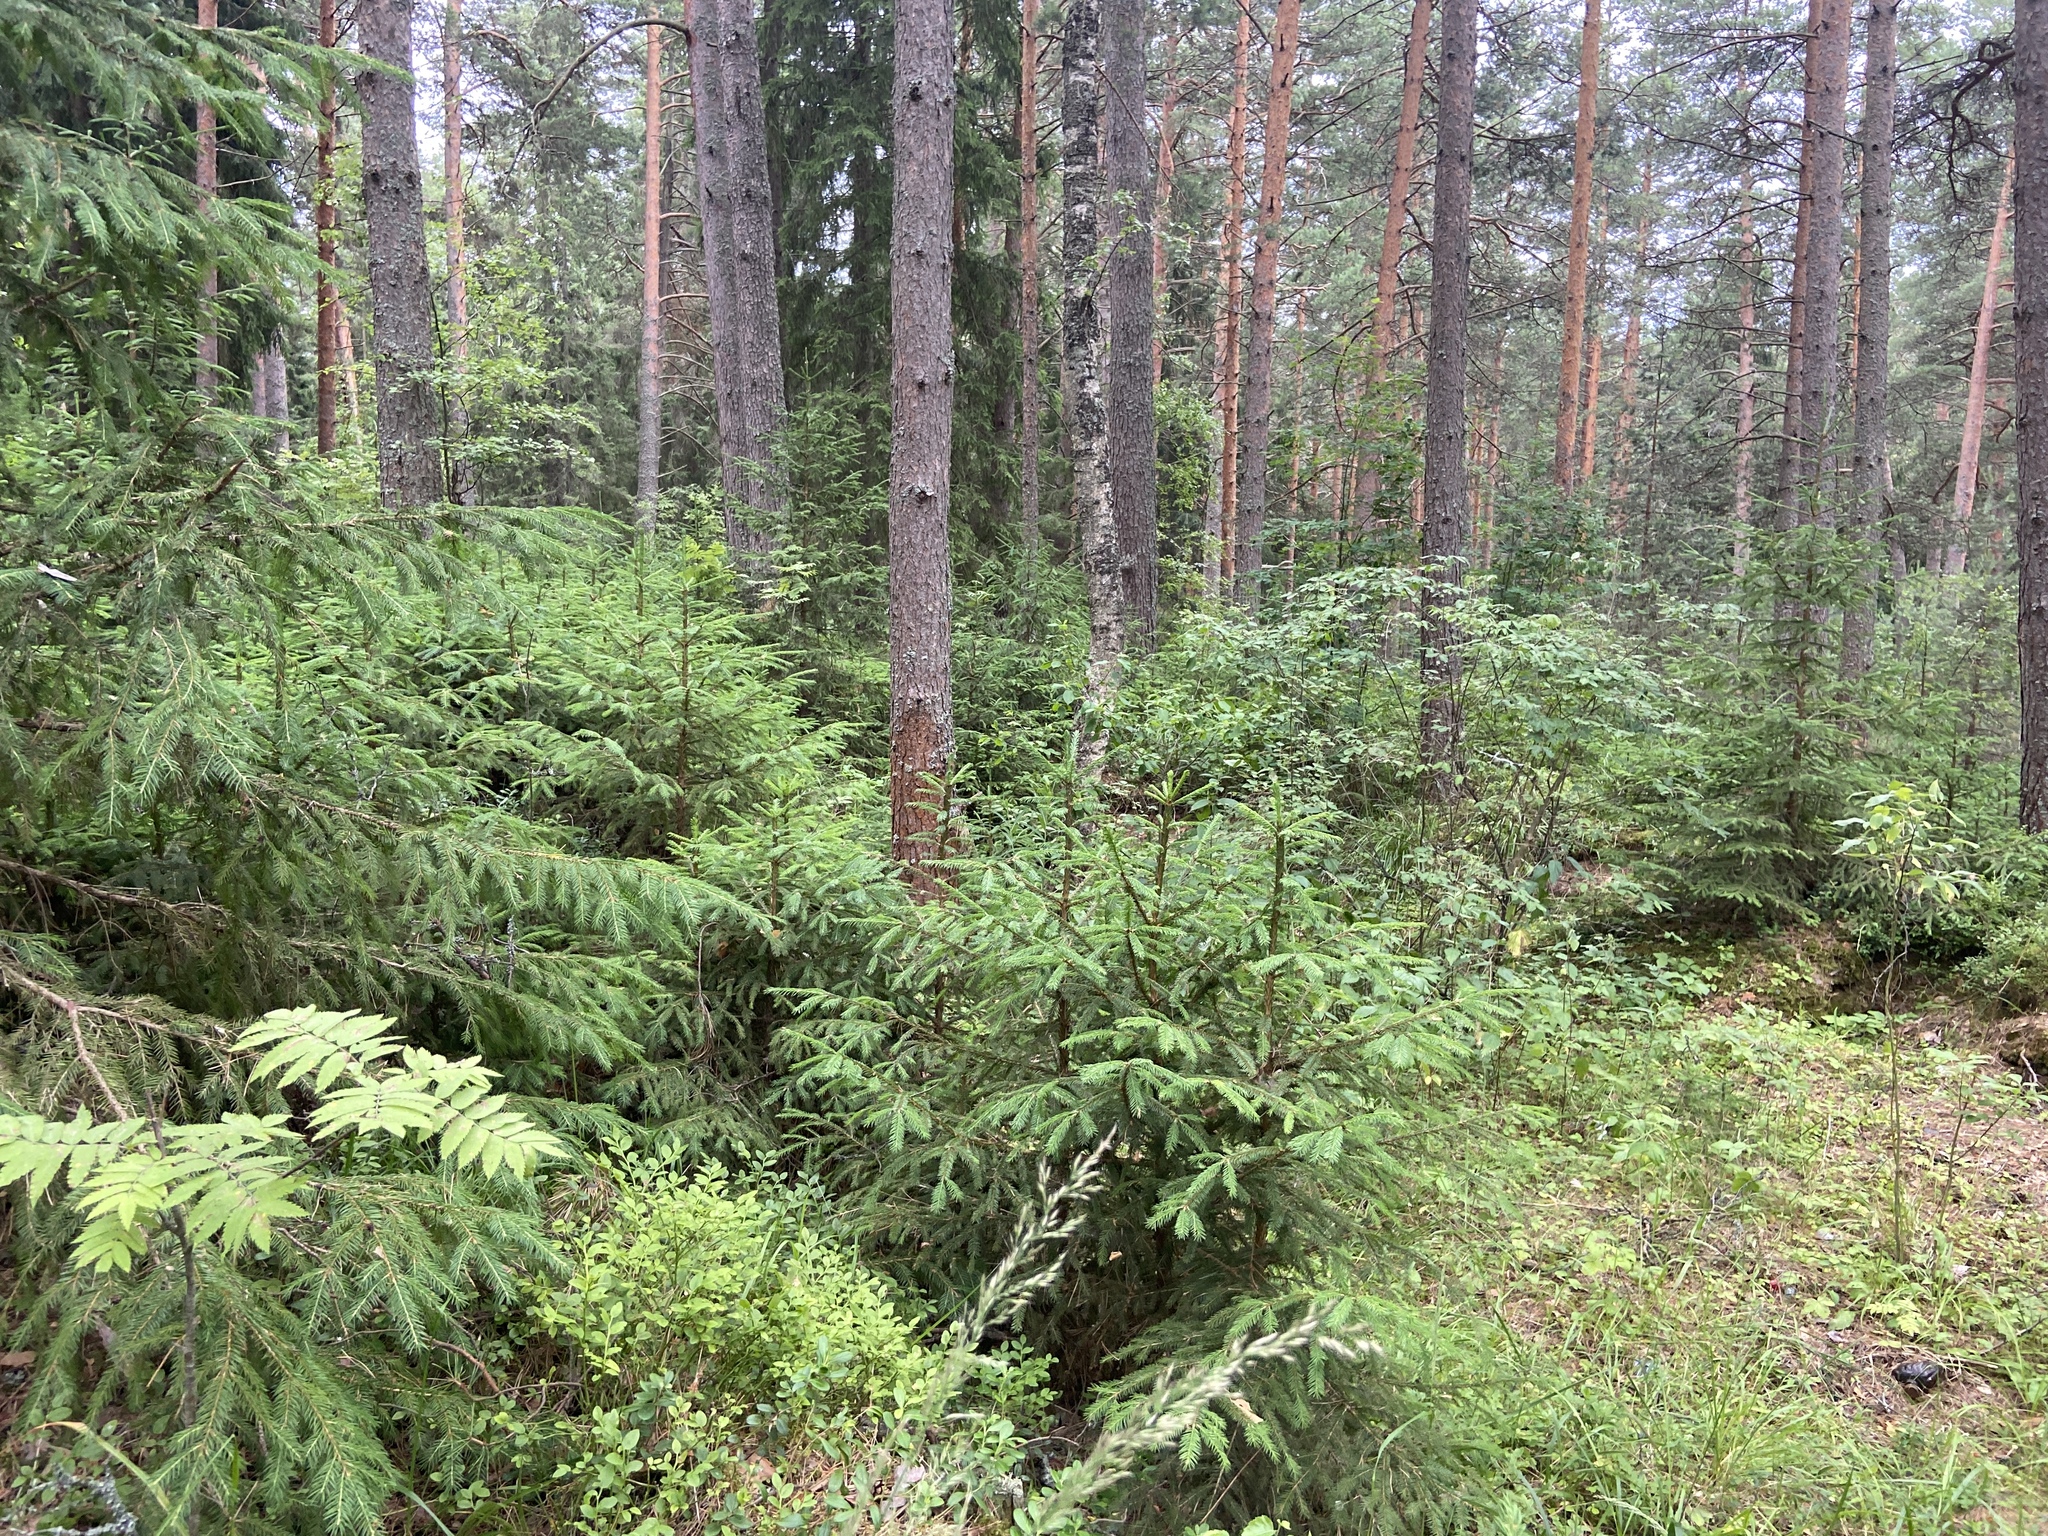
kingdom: Plantae
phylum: Tracheophyta
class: Pinopsida
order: Pinales
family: Pinaceae
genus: Picea
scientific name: Picea abies
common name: Norway spruce
